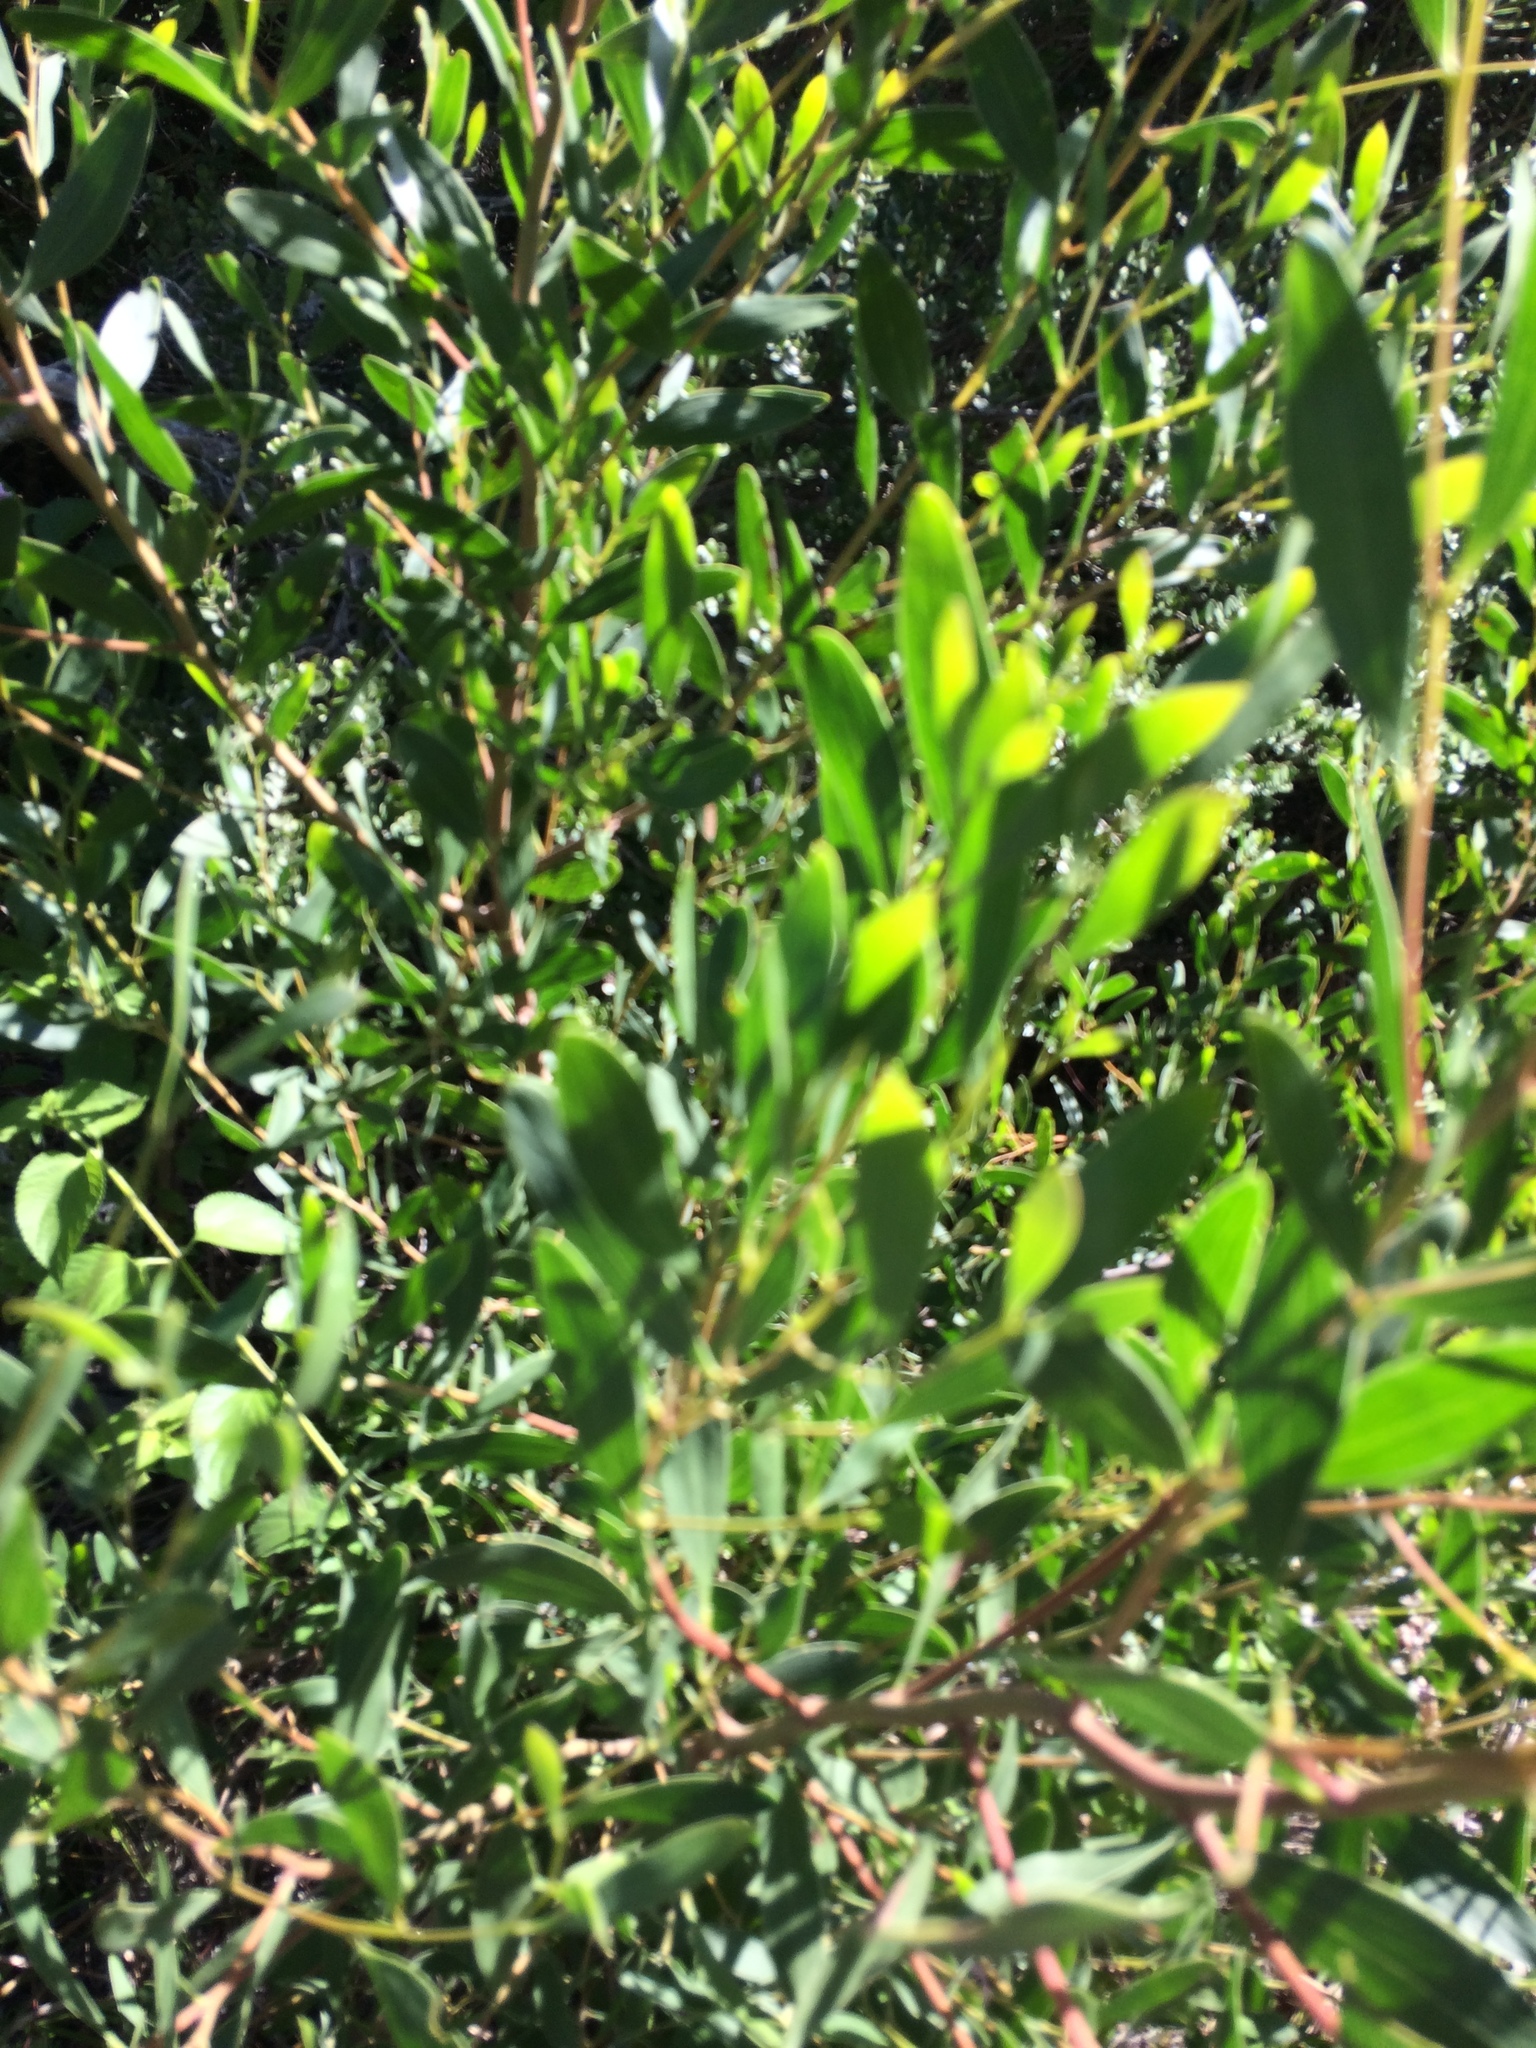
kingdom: Plantae
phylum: Tracheophyta
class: Magnoliopsida
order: Fabales
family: Fabaceae
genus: Acacia
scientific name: Acacia melanoxylon
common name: Blackwood
